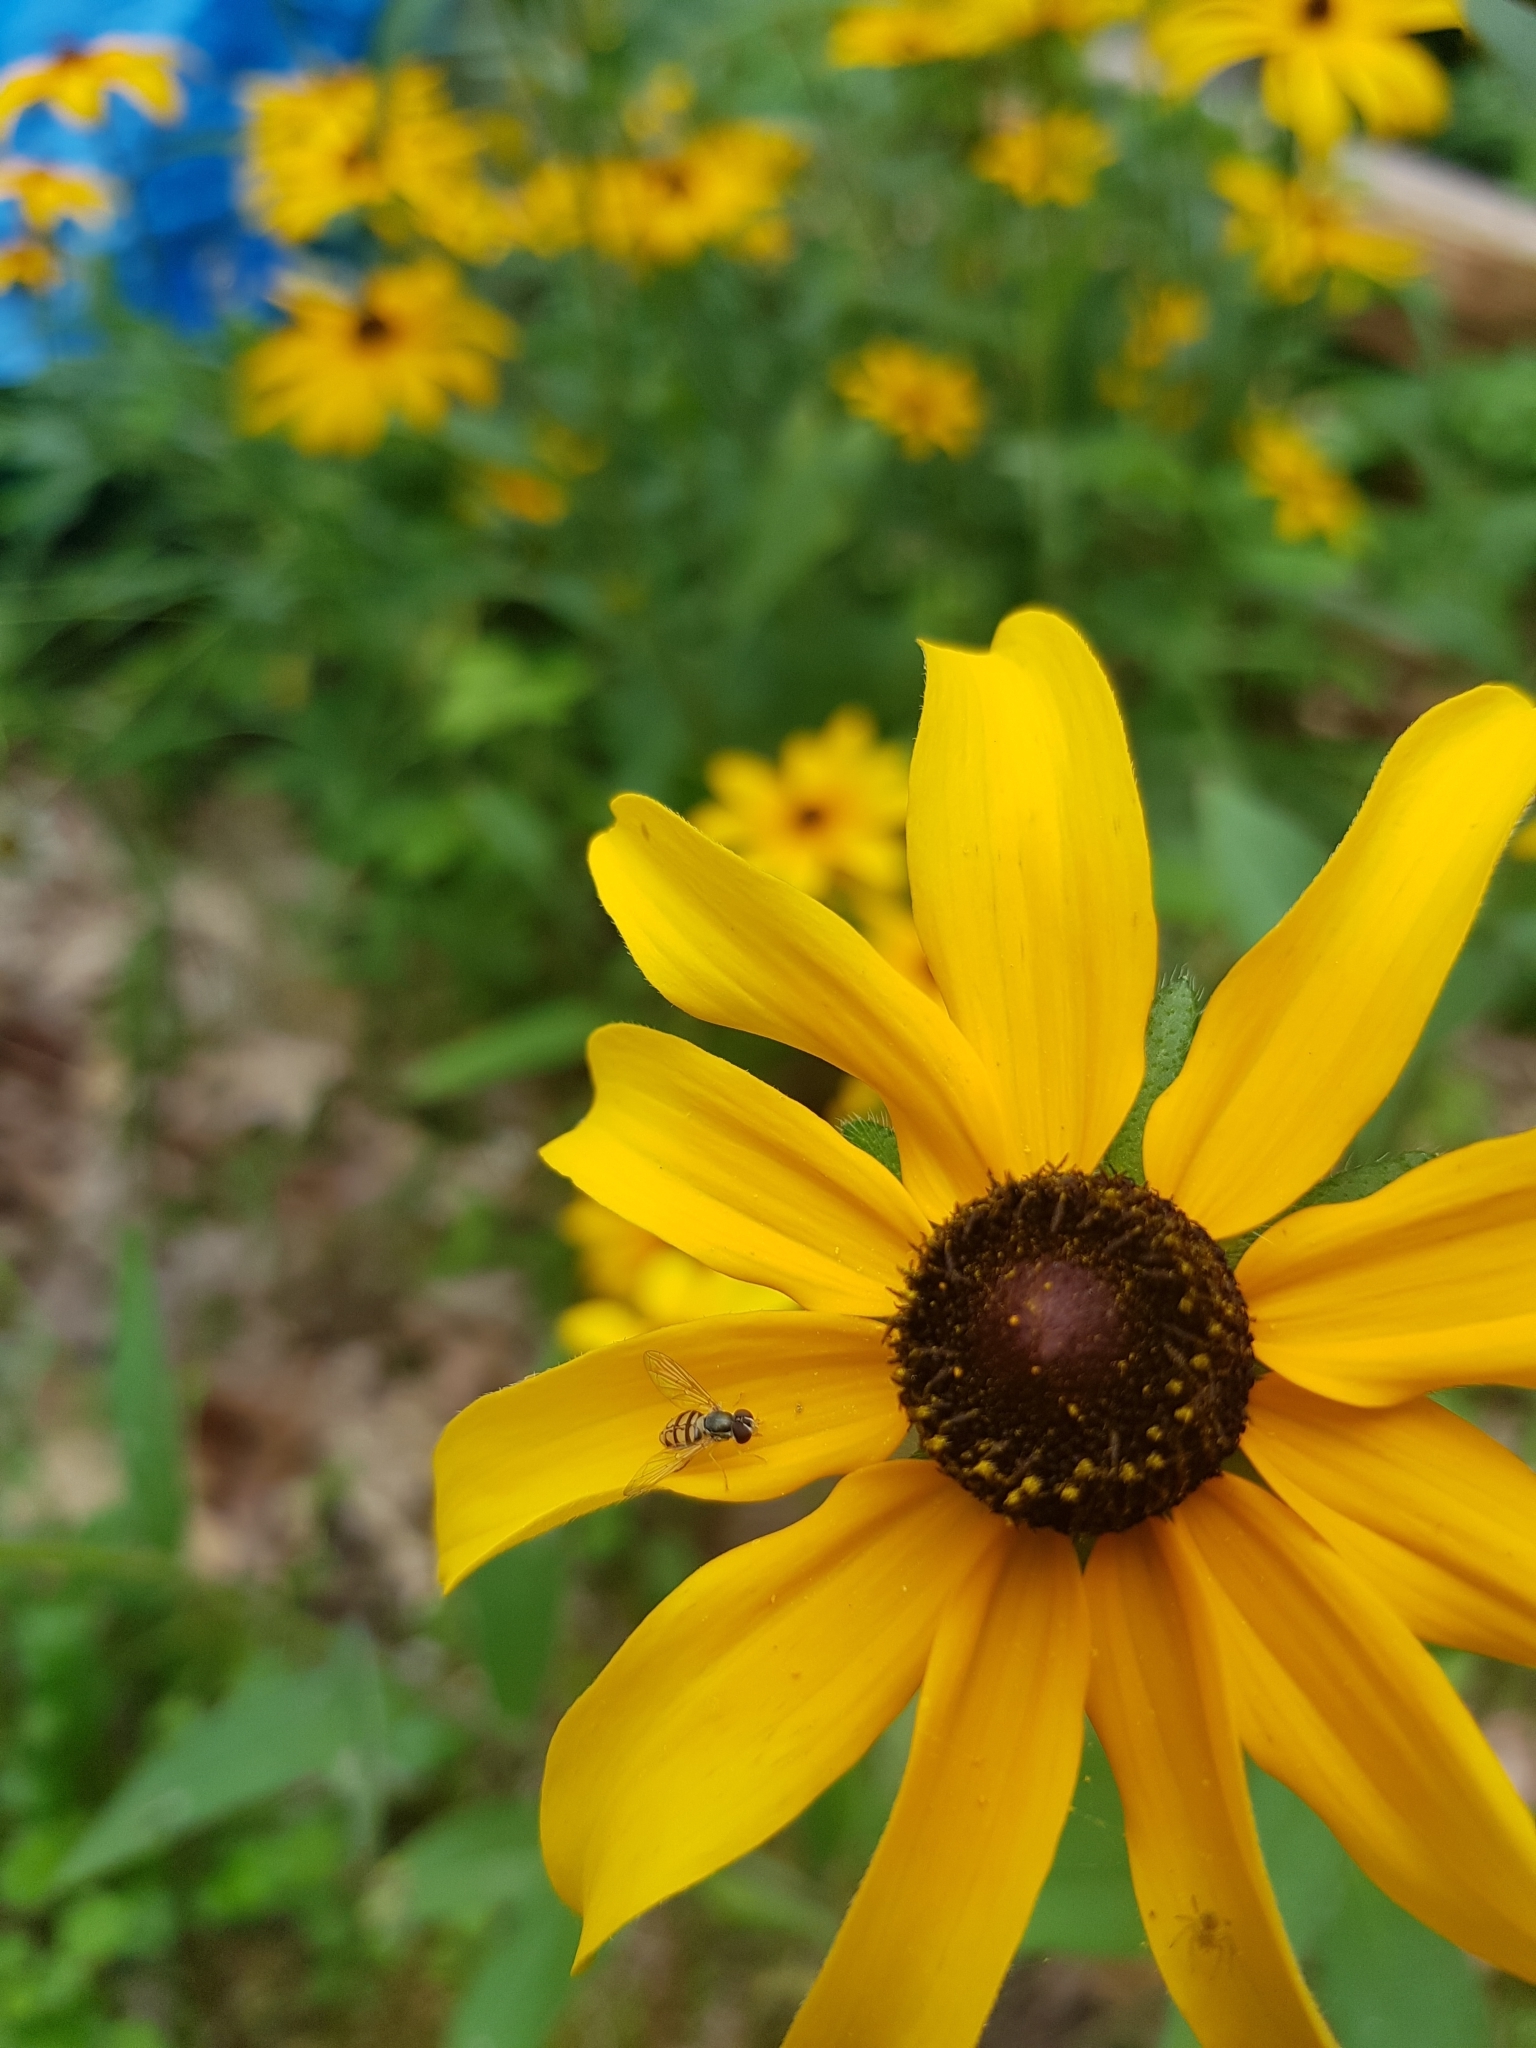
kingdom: Animalia
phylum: Arthropoda
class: Insecta
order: Diptera
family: Syrphidae
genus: Toxomerus
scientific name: Toxomerus marginatus
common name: Syrphid fly
